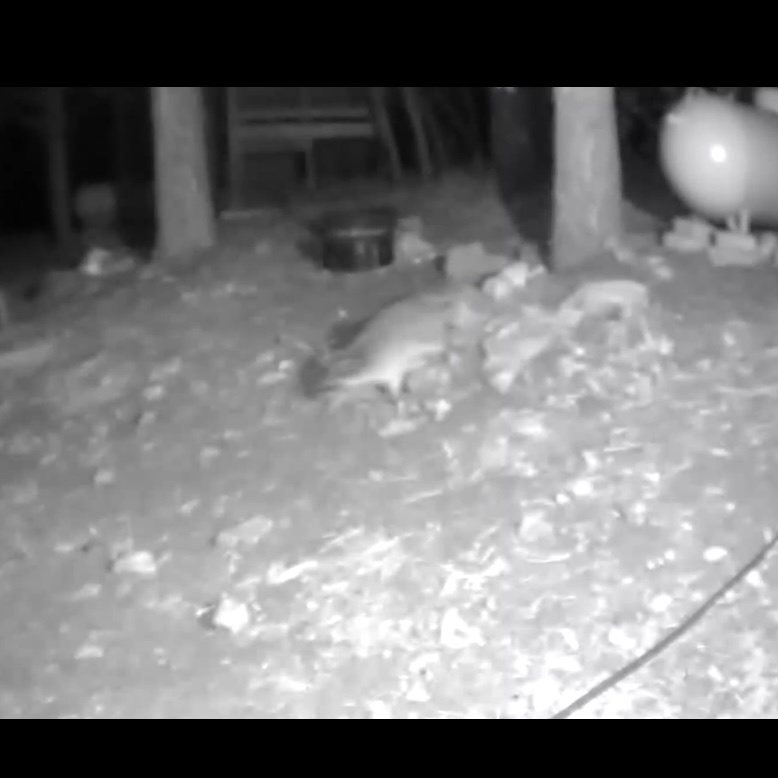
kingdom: Animalia
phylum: Chordata
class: Mammalia
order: Carnivora
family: Procyonidae
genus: Procyon
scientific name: Procyon lotor
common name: Raccoon
